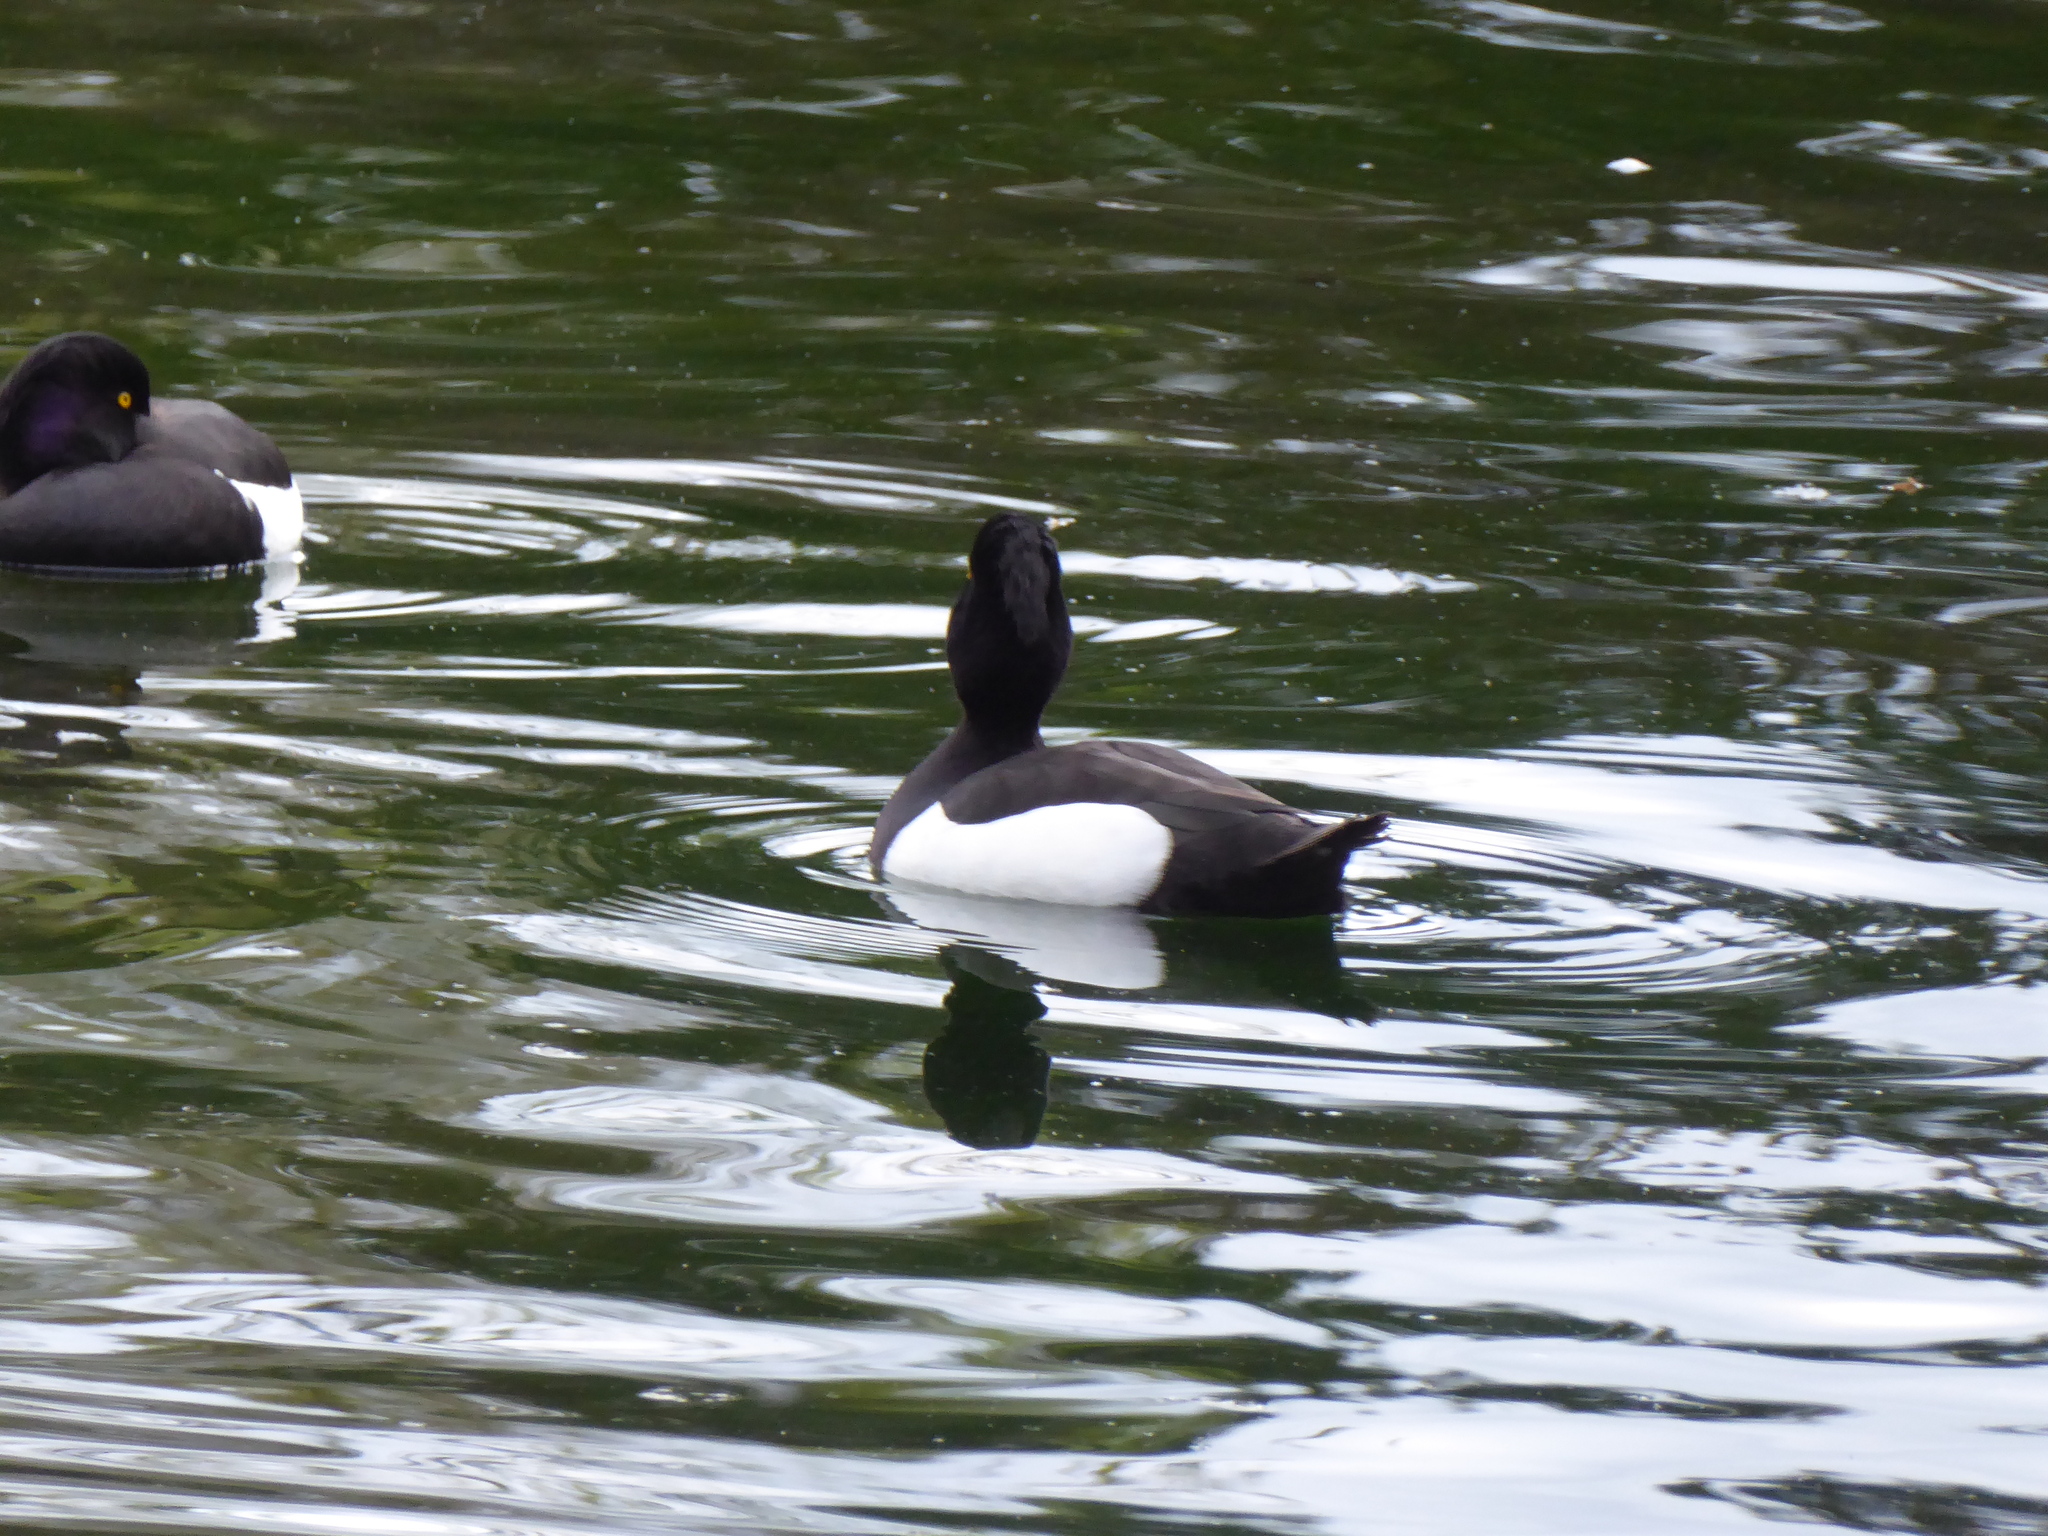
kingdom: Animalia
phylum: Chordata
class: Aves
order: Anseriformes
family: Anatidae
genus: Aythya
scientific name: Aythya fuligula
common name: Tufted duck
